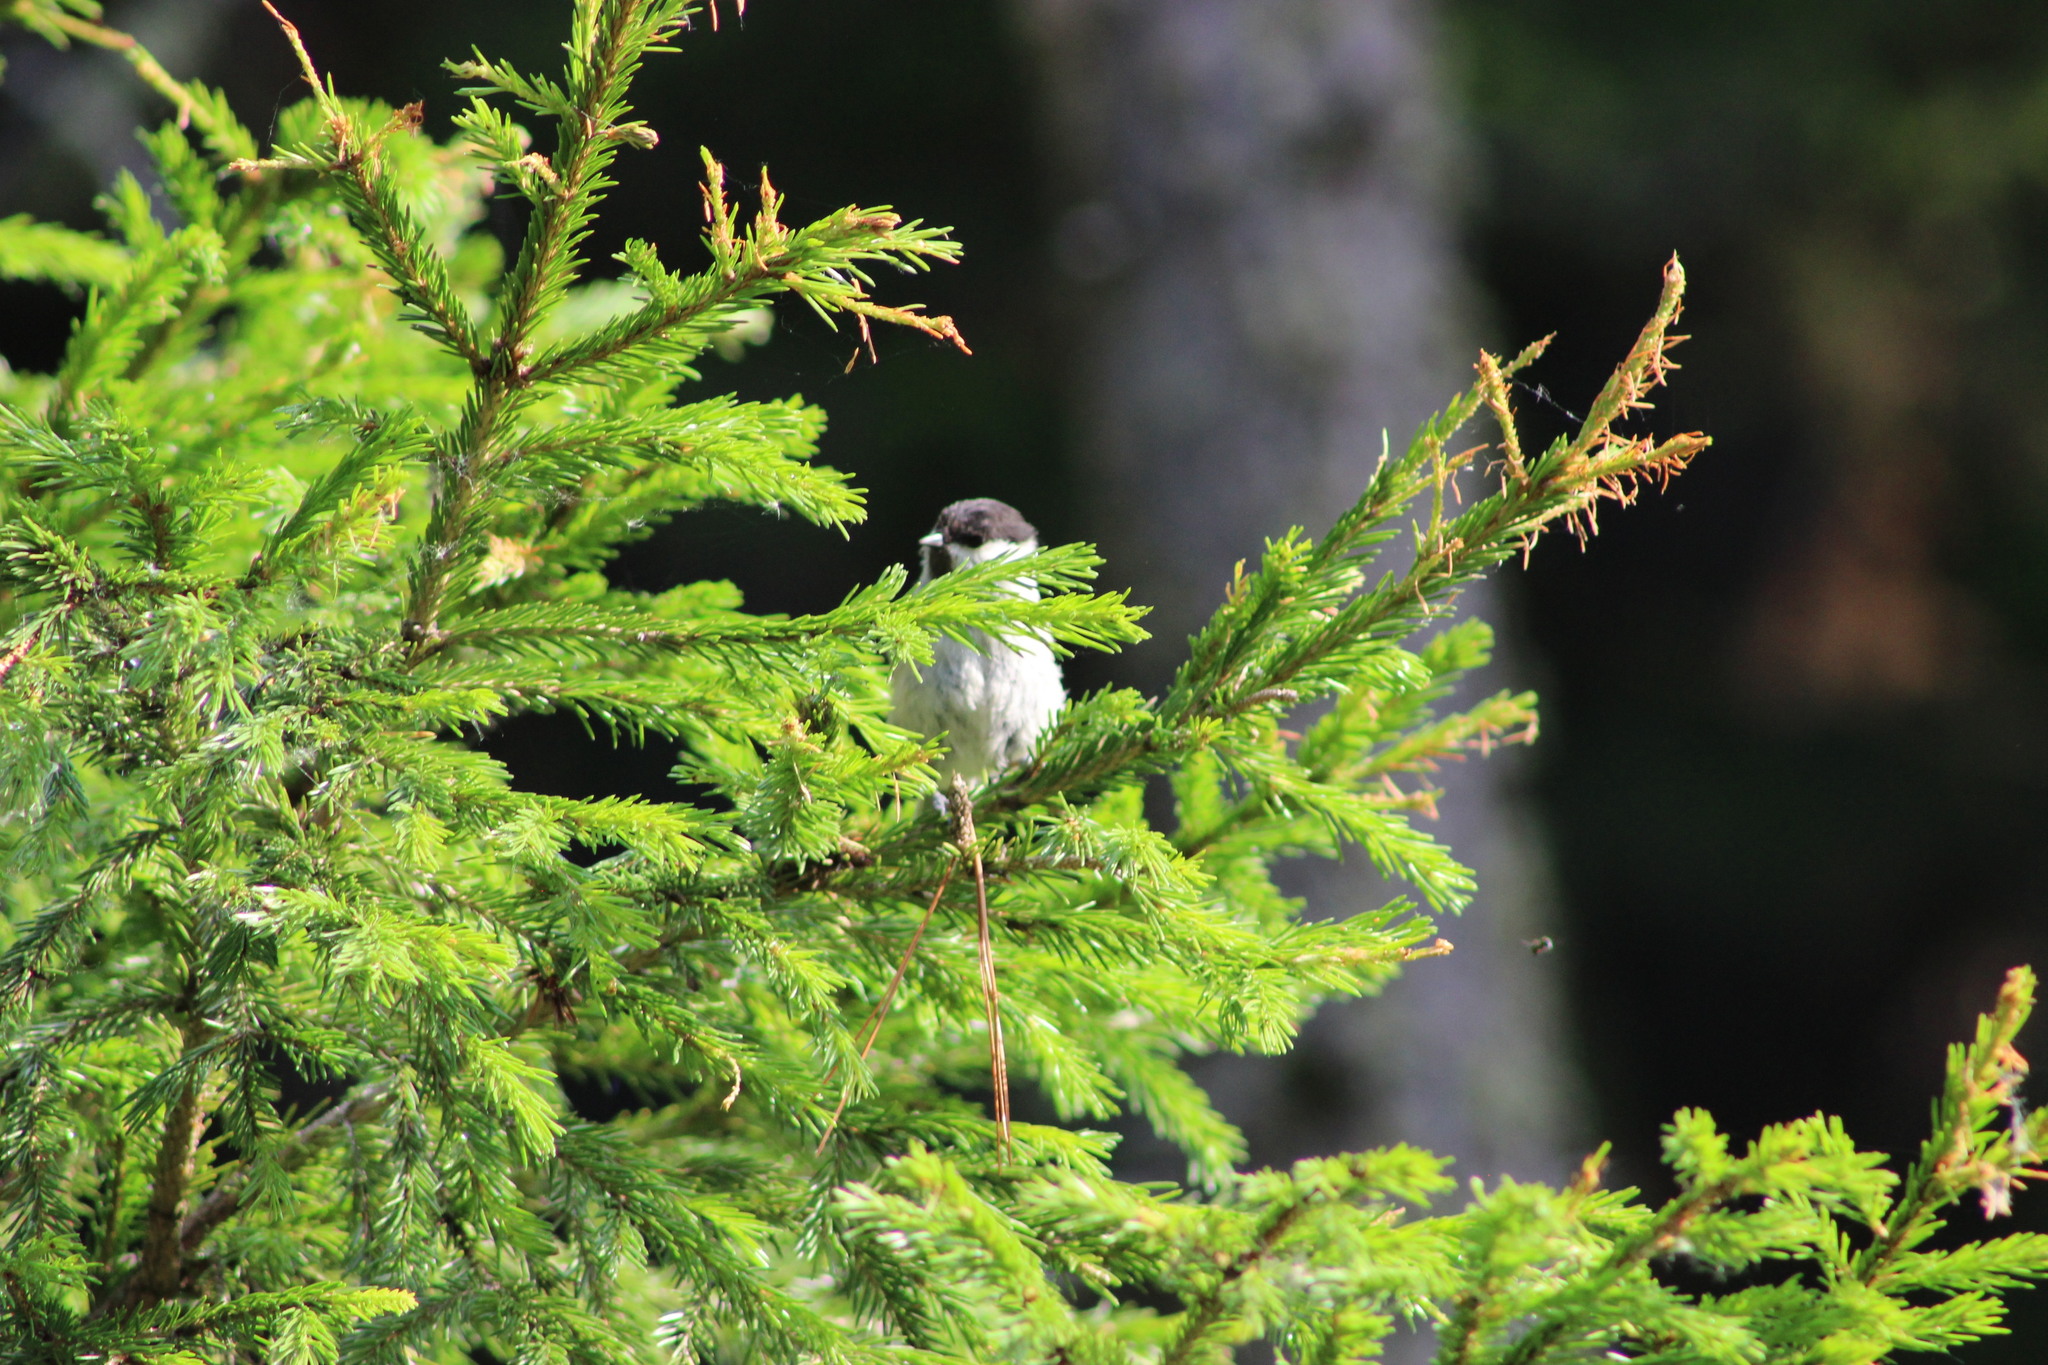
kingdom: Animalia
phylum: Chordata
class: Aves
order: Passeriformes
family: Paridae
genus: Poecile
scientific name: Poecile montanus
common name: Willow tit
